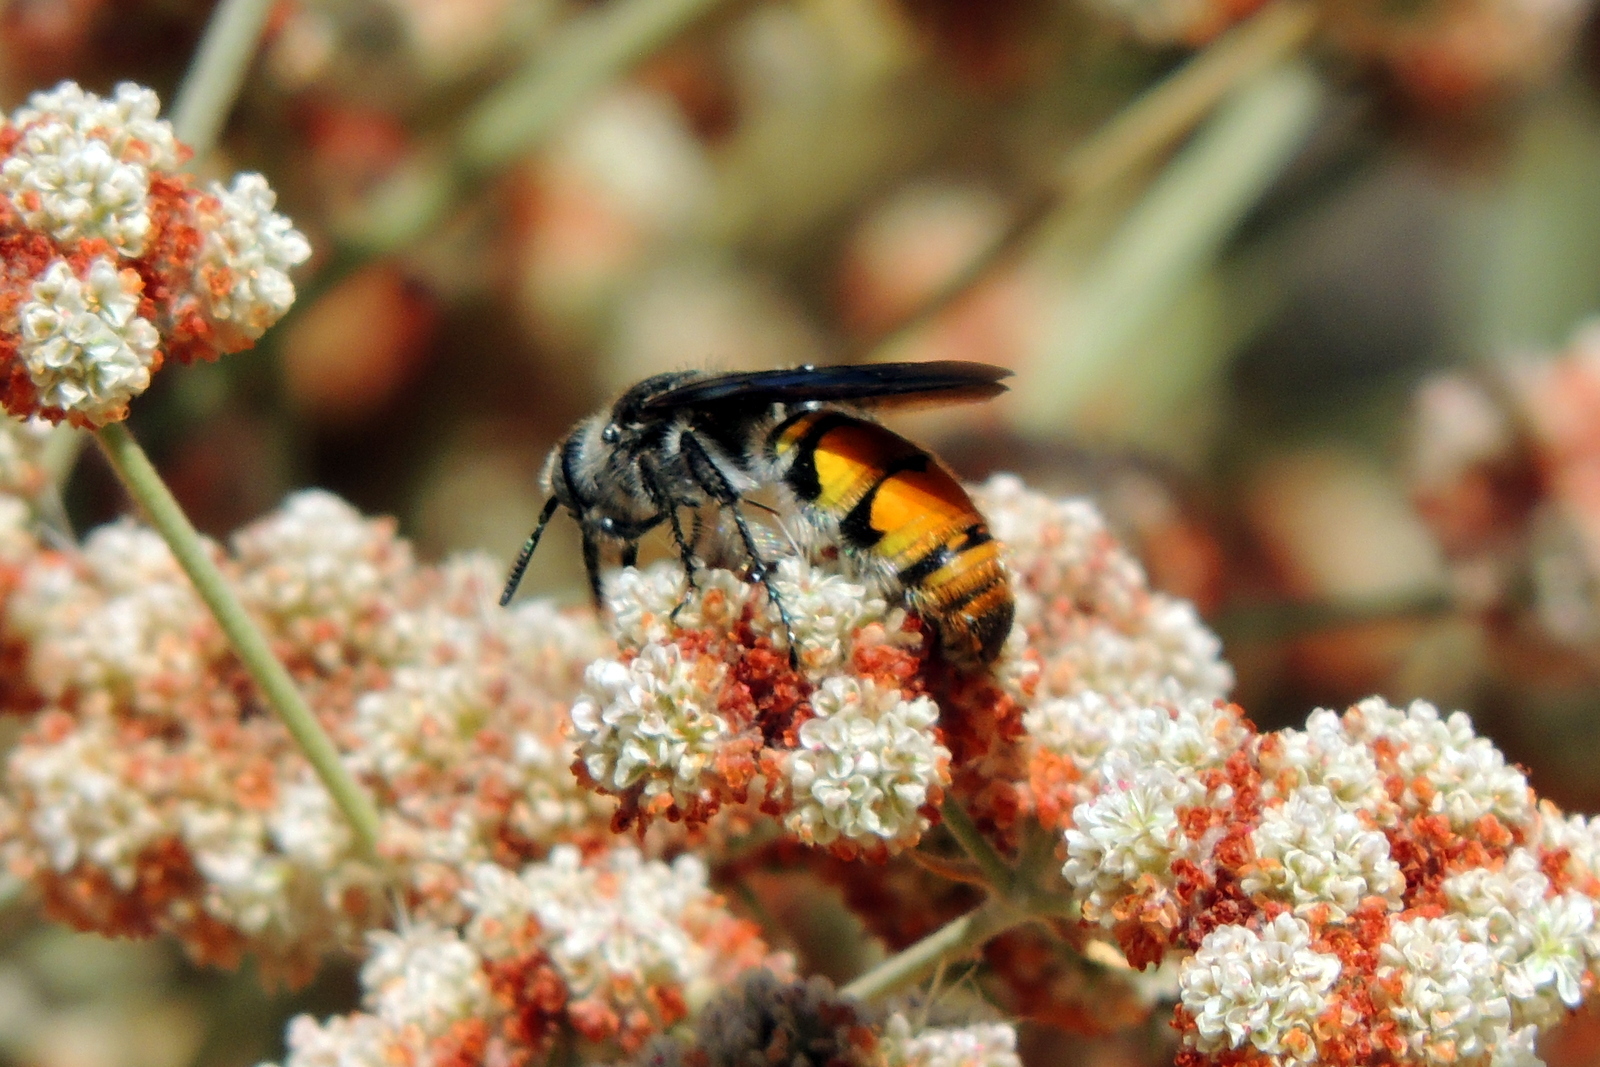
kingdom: Animalia
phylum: Arthropoda
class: Insecta
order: Hymenoptera
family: Scoliidae
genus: Dielis
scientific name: Dielis tolteca
